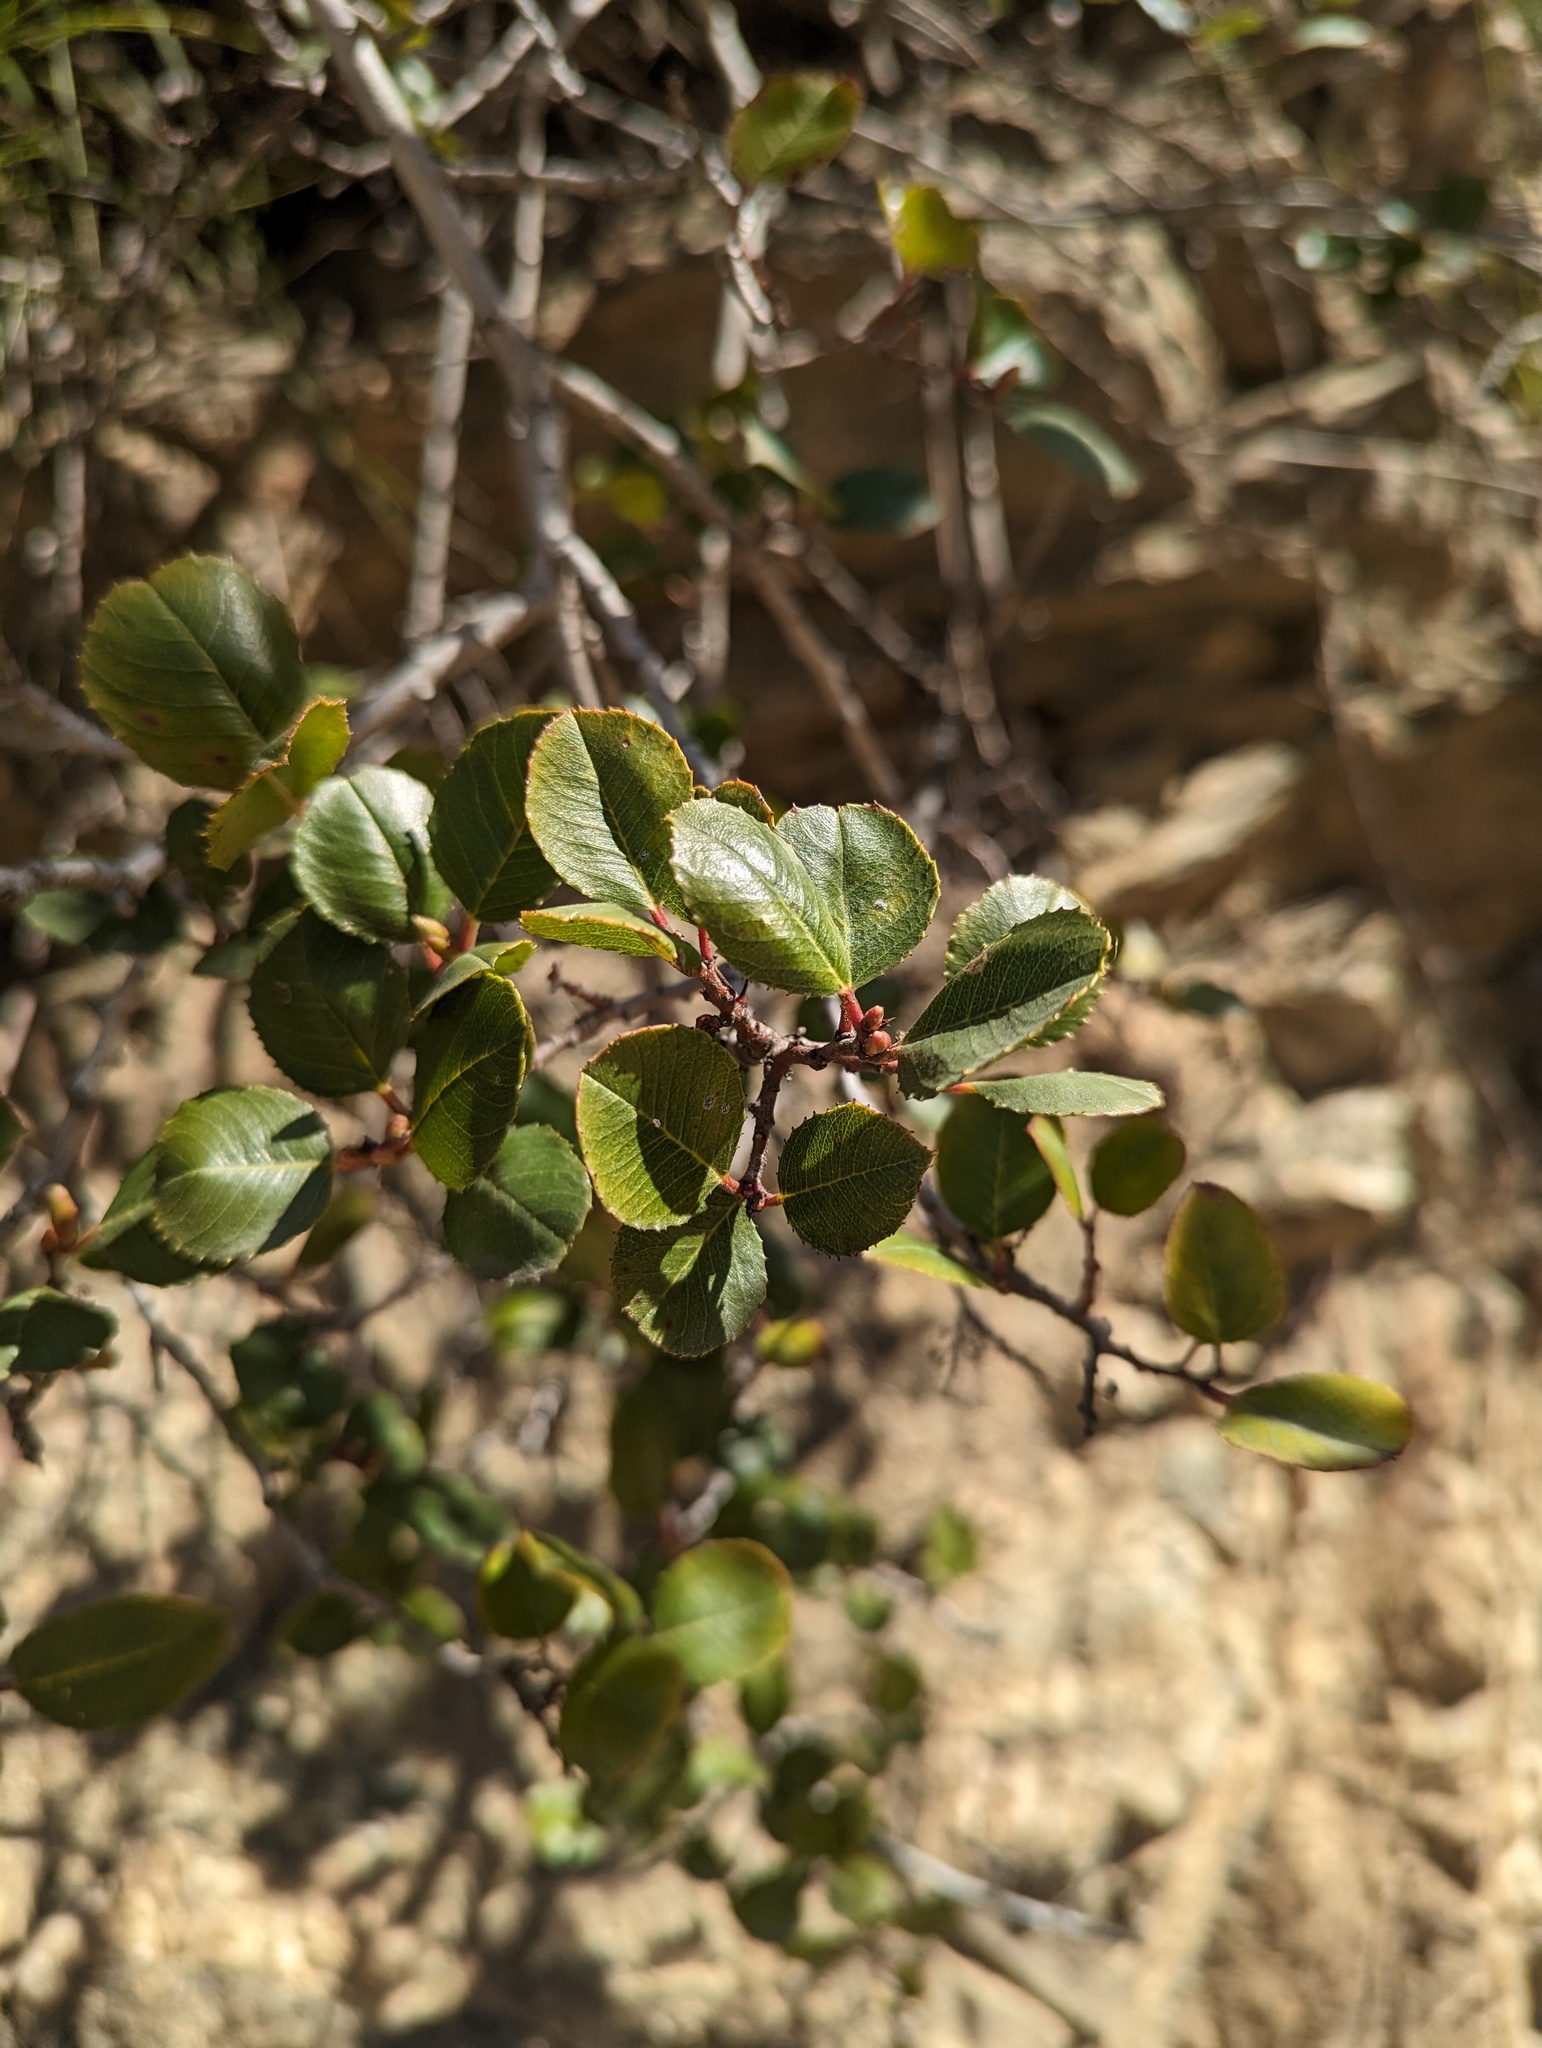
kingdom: Plantae
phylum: Tracheophyta
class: Magnoliopsida
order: Rosales
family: Rhamnaceae
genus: Endotropis
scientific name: Endotropis crocea
